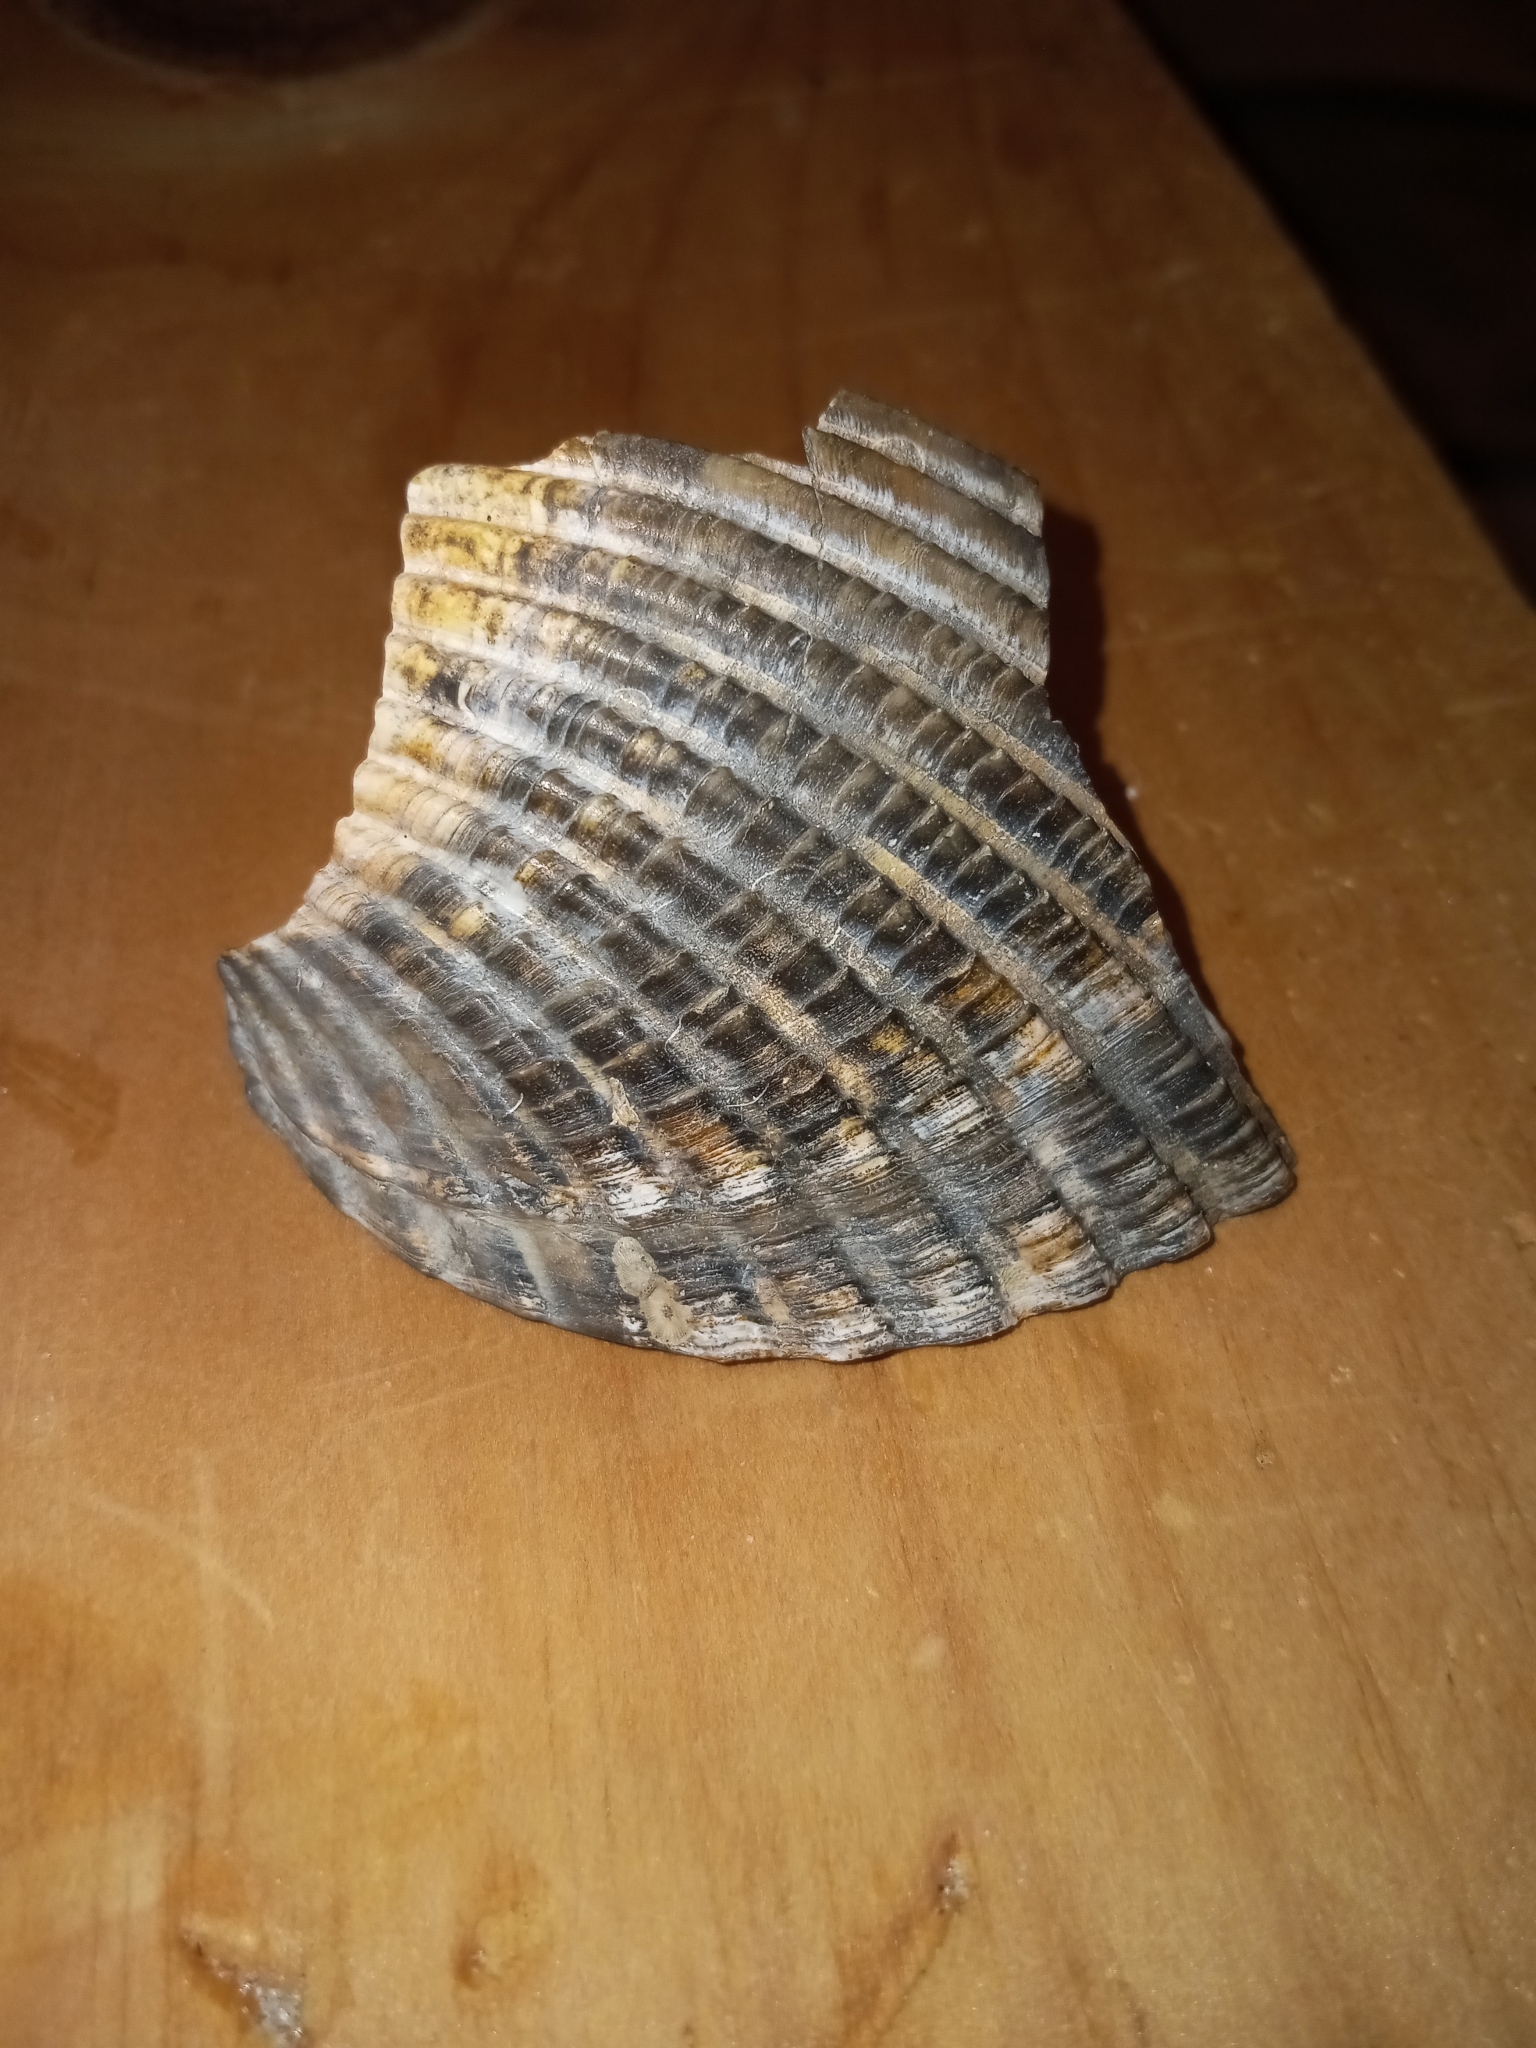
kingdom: Animalia
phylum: Mollusca
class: Bivalvia
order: Cardiida
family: Cardiidae
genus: Dinocardium
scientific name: Dinocardium robustum
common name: Atlantic giant cockle
